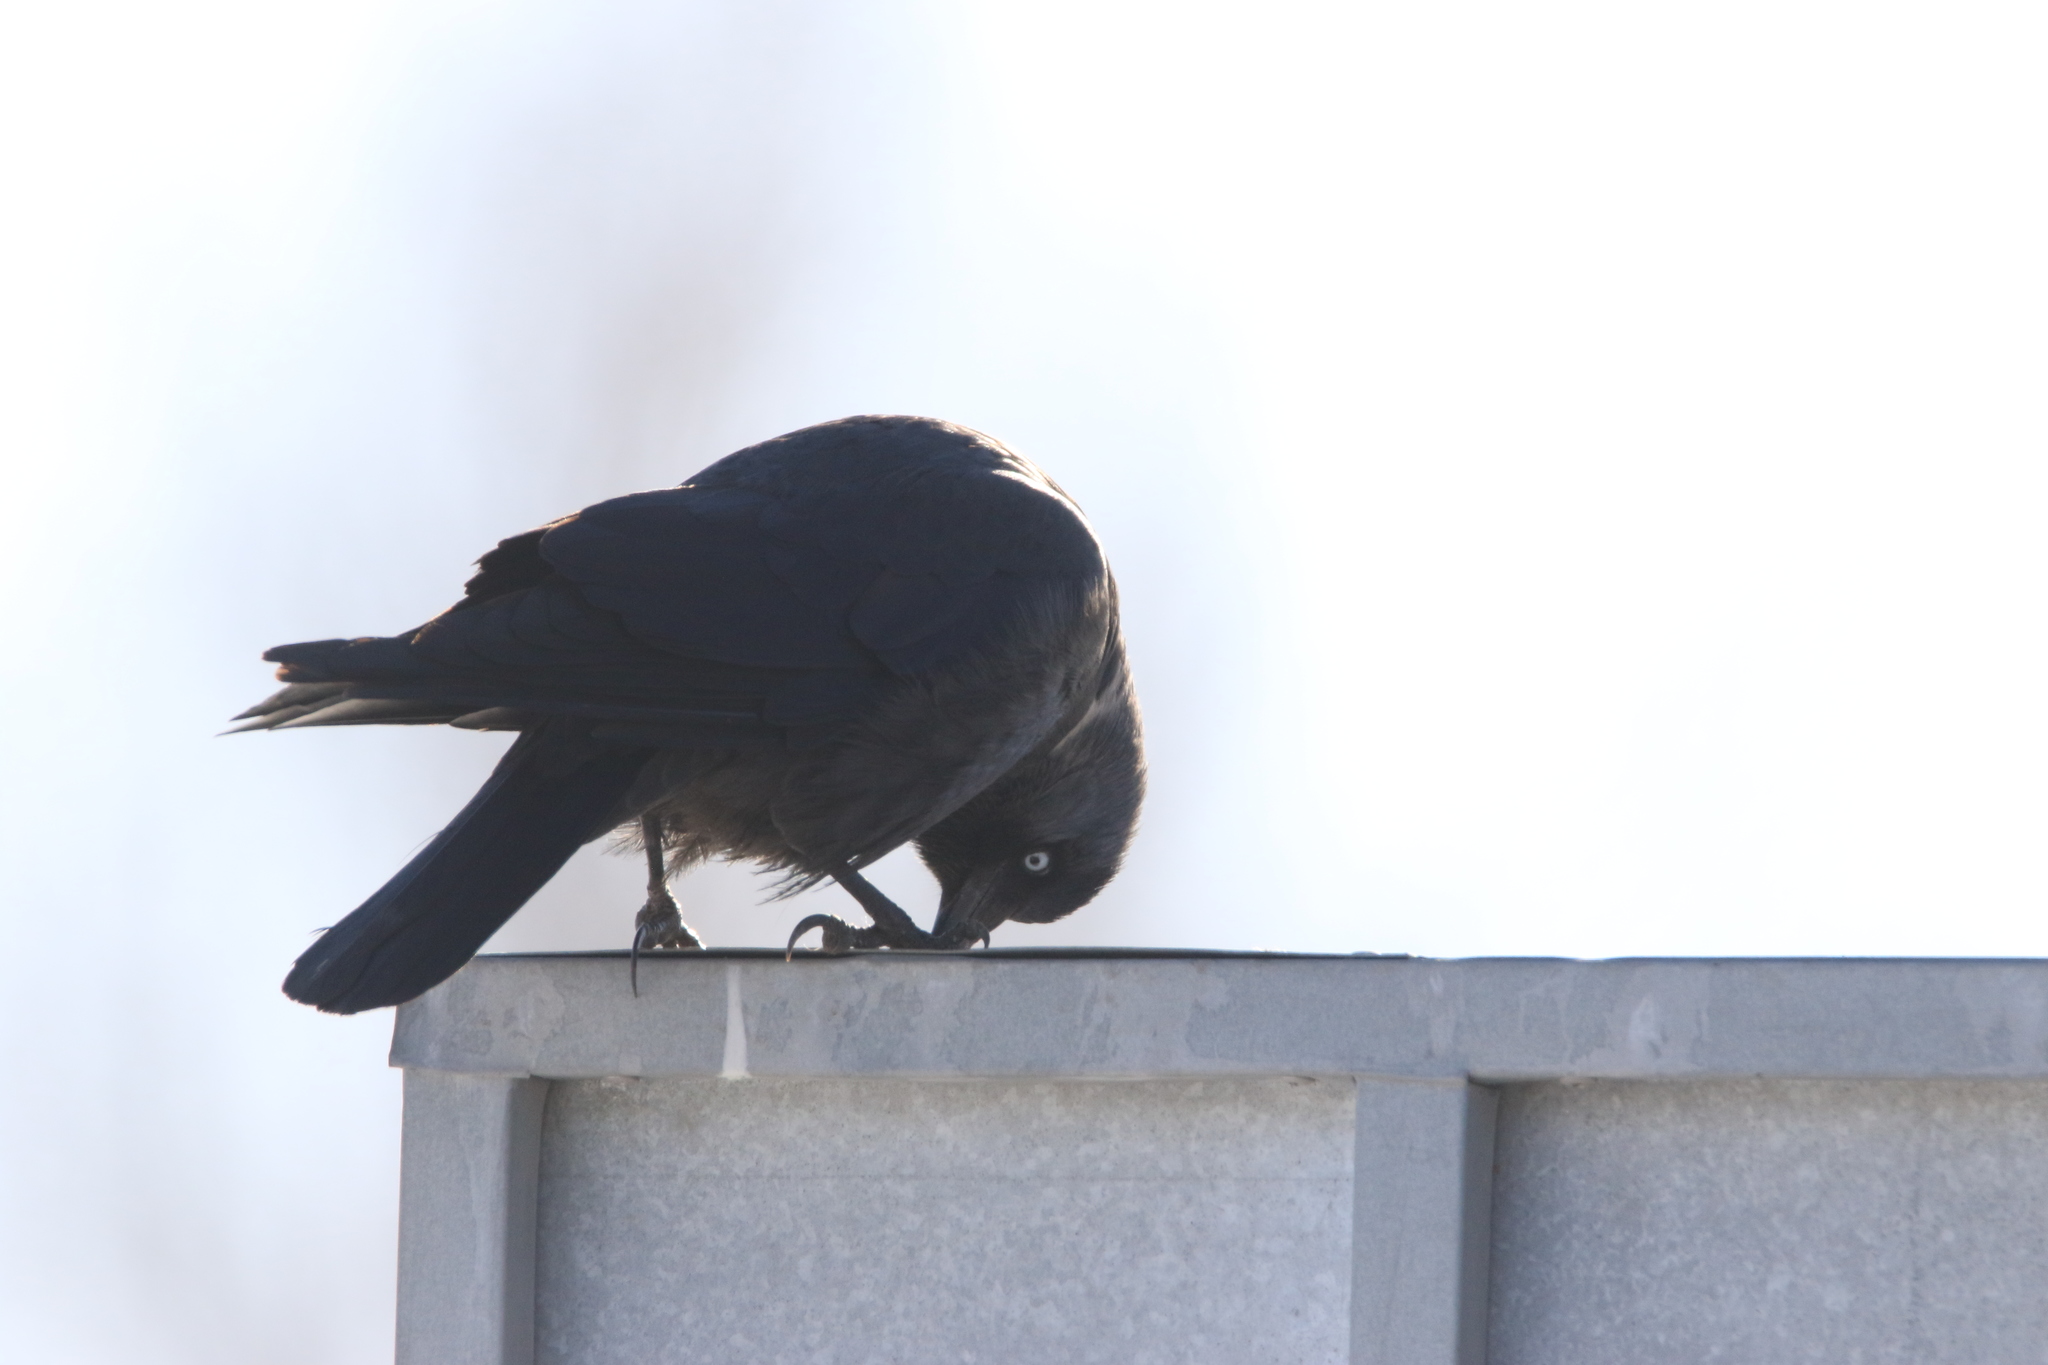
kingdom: Animalia
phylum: Chordata
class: Aves
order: Passeriformes
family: Corvidae
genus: Coloeus
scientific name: Coloeus monedula
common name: Western jackdaw
